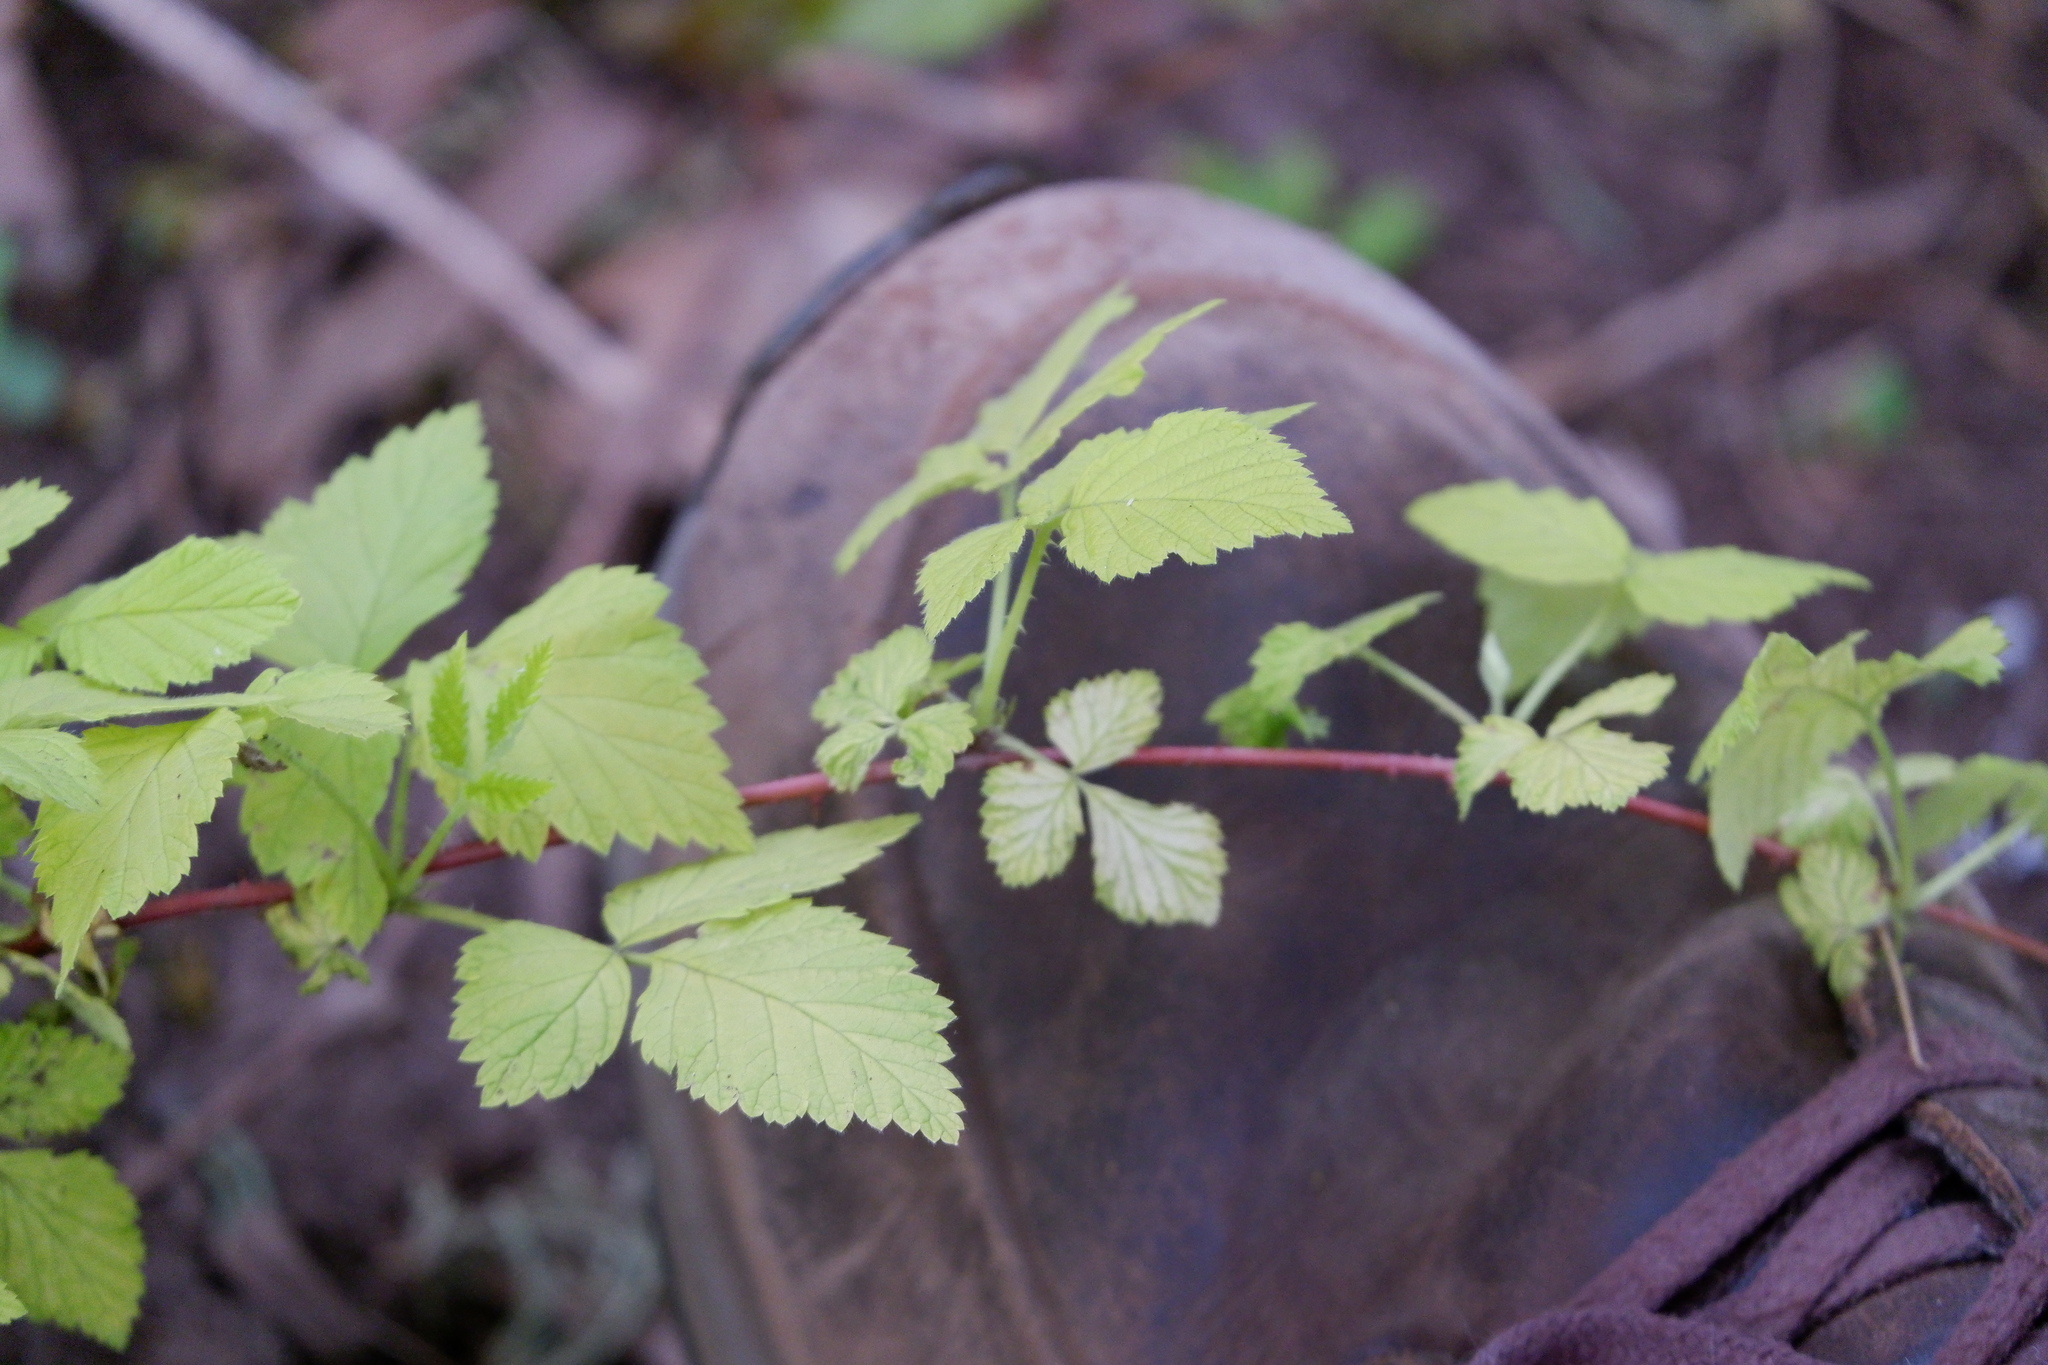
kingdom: Plantae
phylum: Tracheophyta
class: Magnoliopsida
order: Rosales
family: Rosaceae
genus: Rubus
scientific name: Rubus occidentalis
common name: Black raspberry
